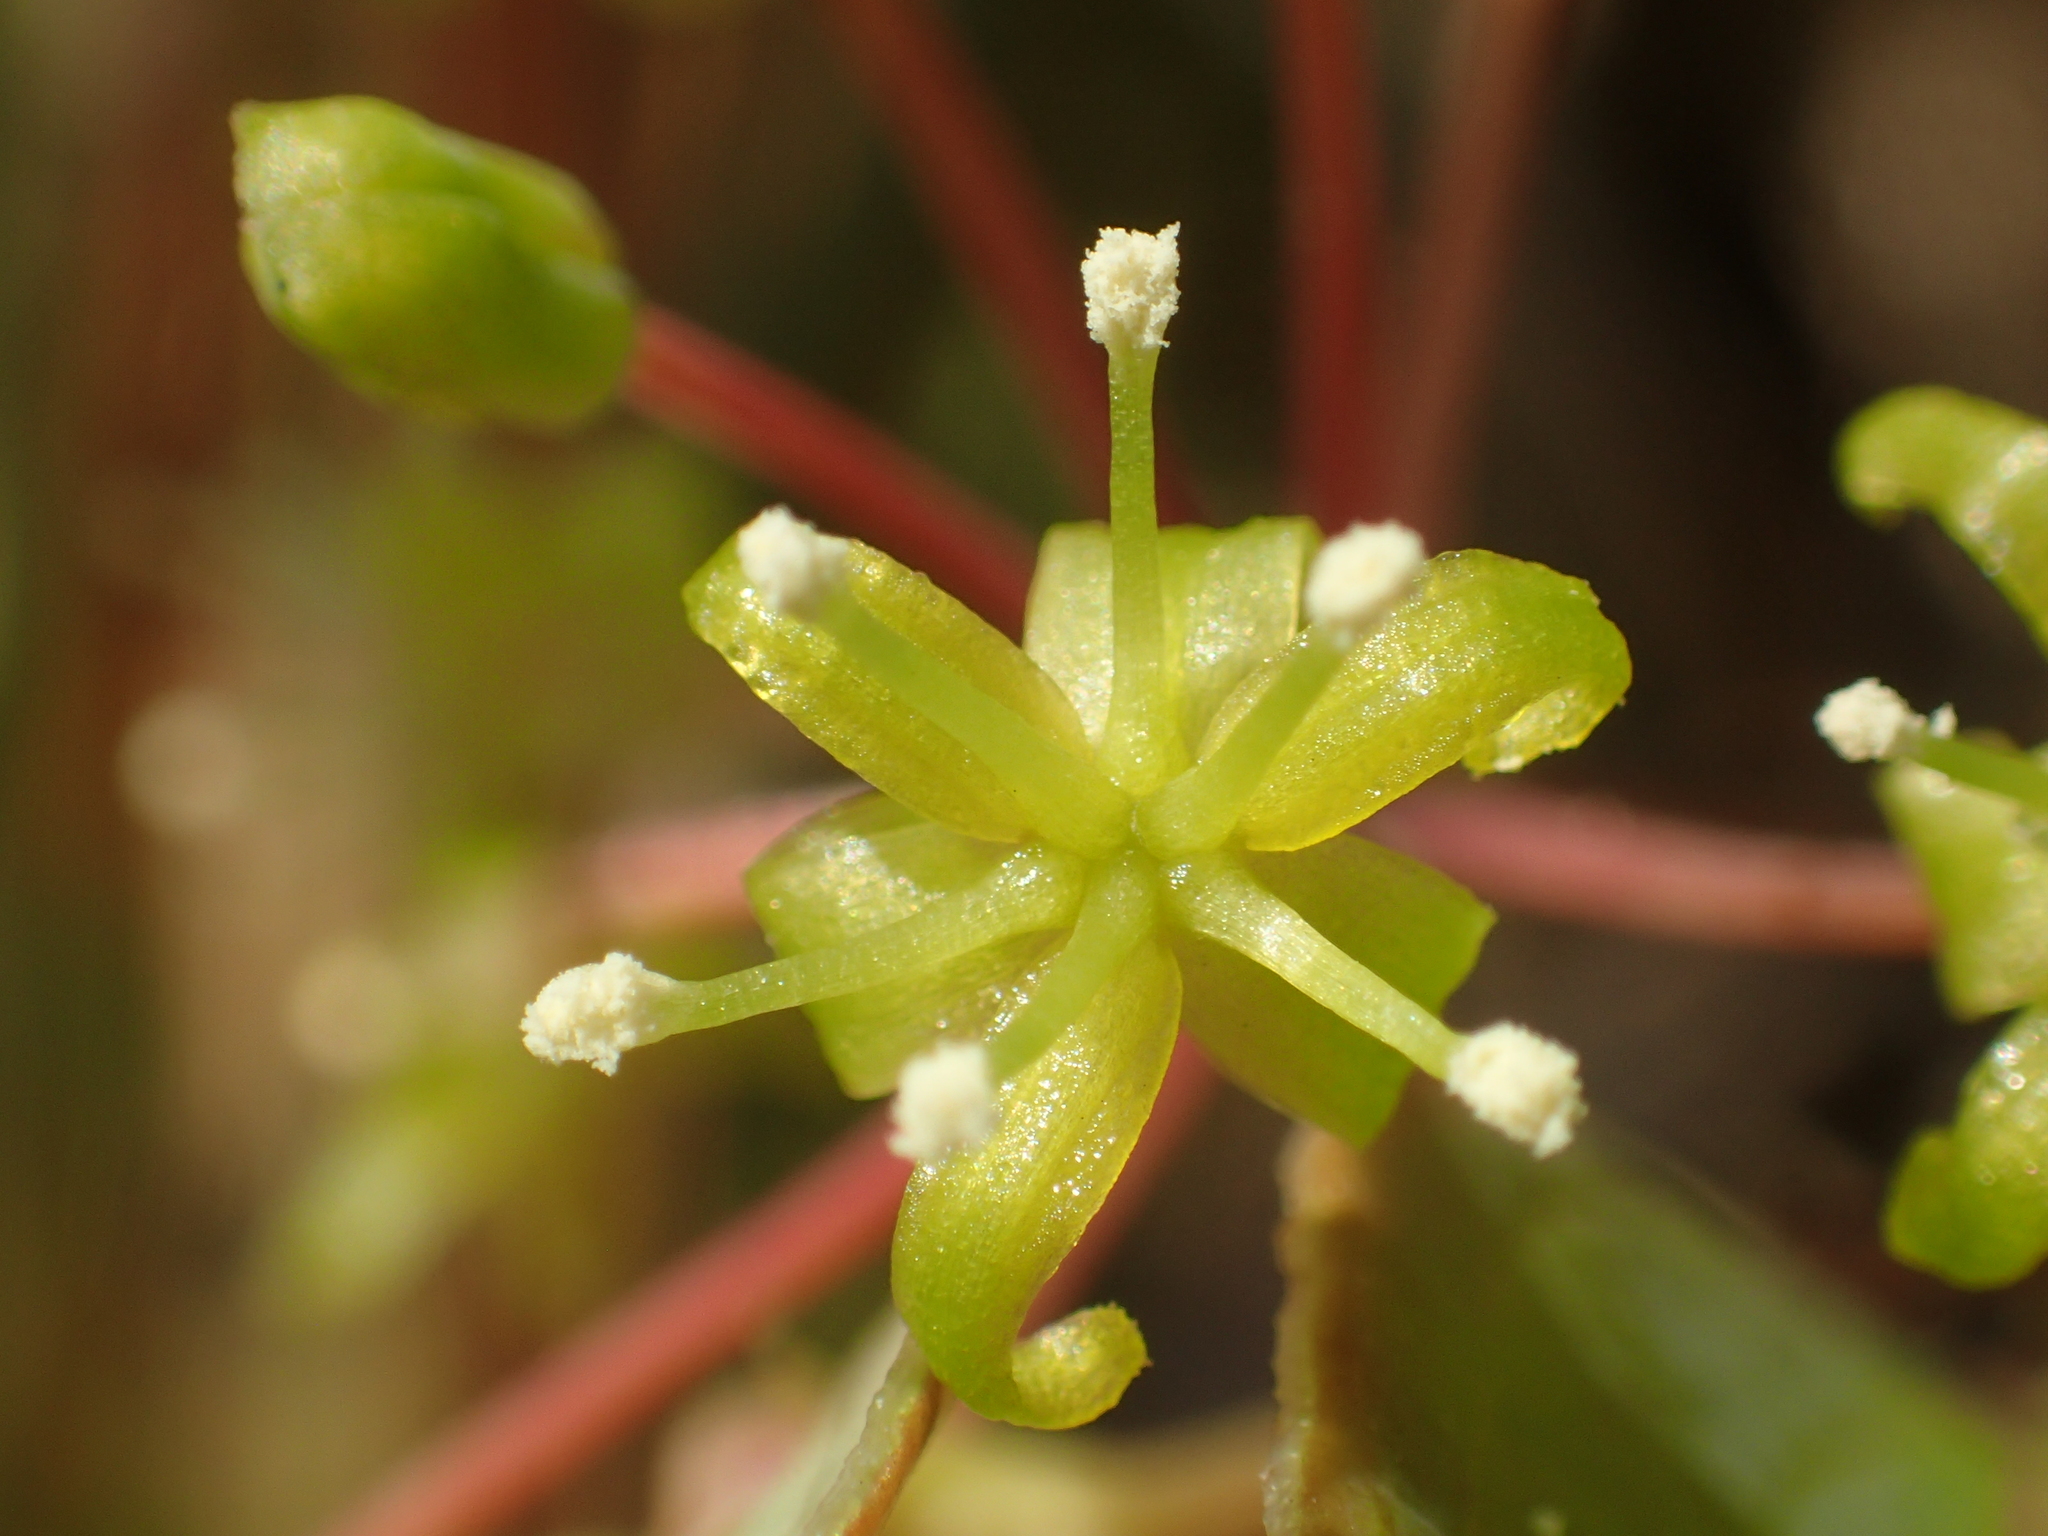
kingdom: Plantae
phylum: Tracheophyta
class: Liliopsida
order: Liliales
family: Smilacaceae
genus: Smilax
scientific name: Smilax china
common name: Chinaroot
